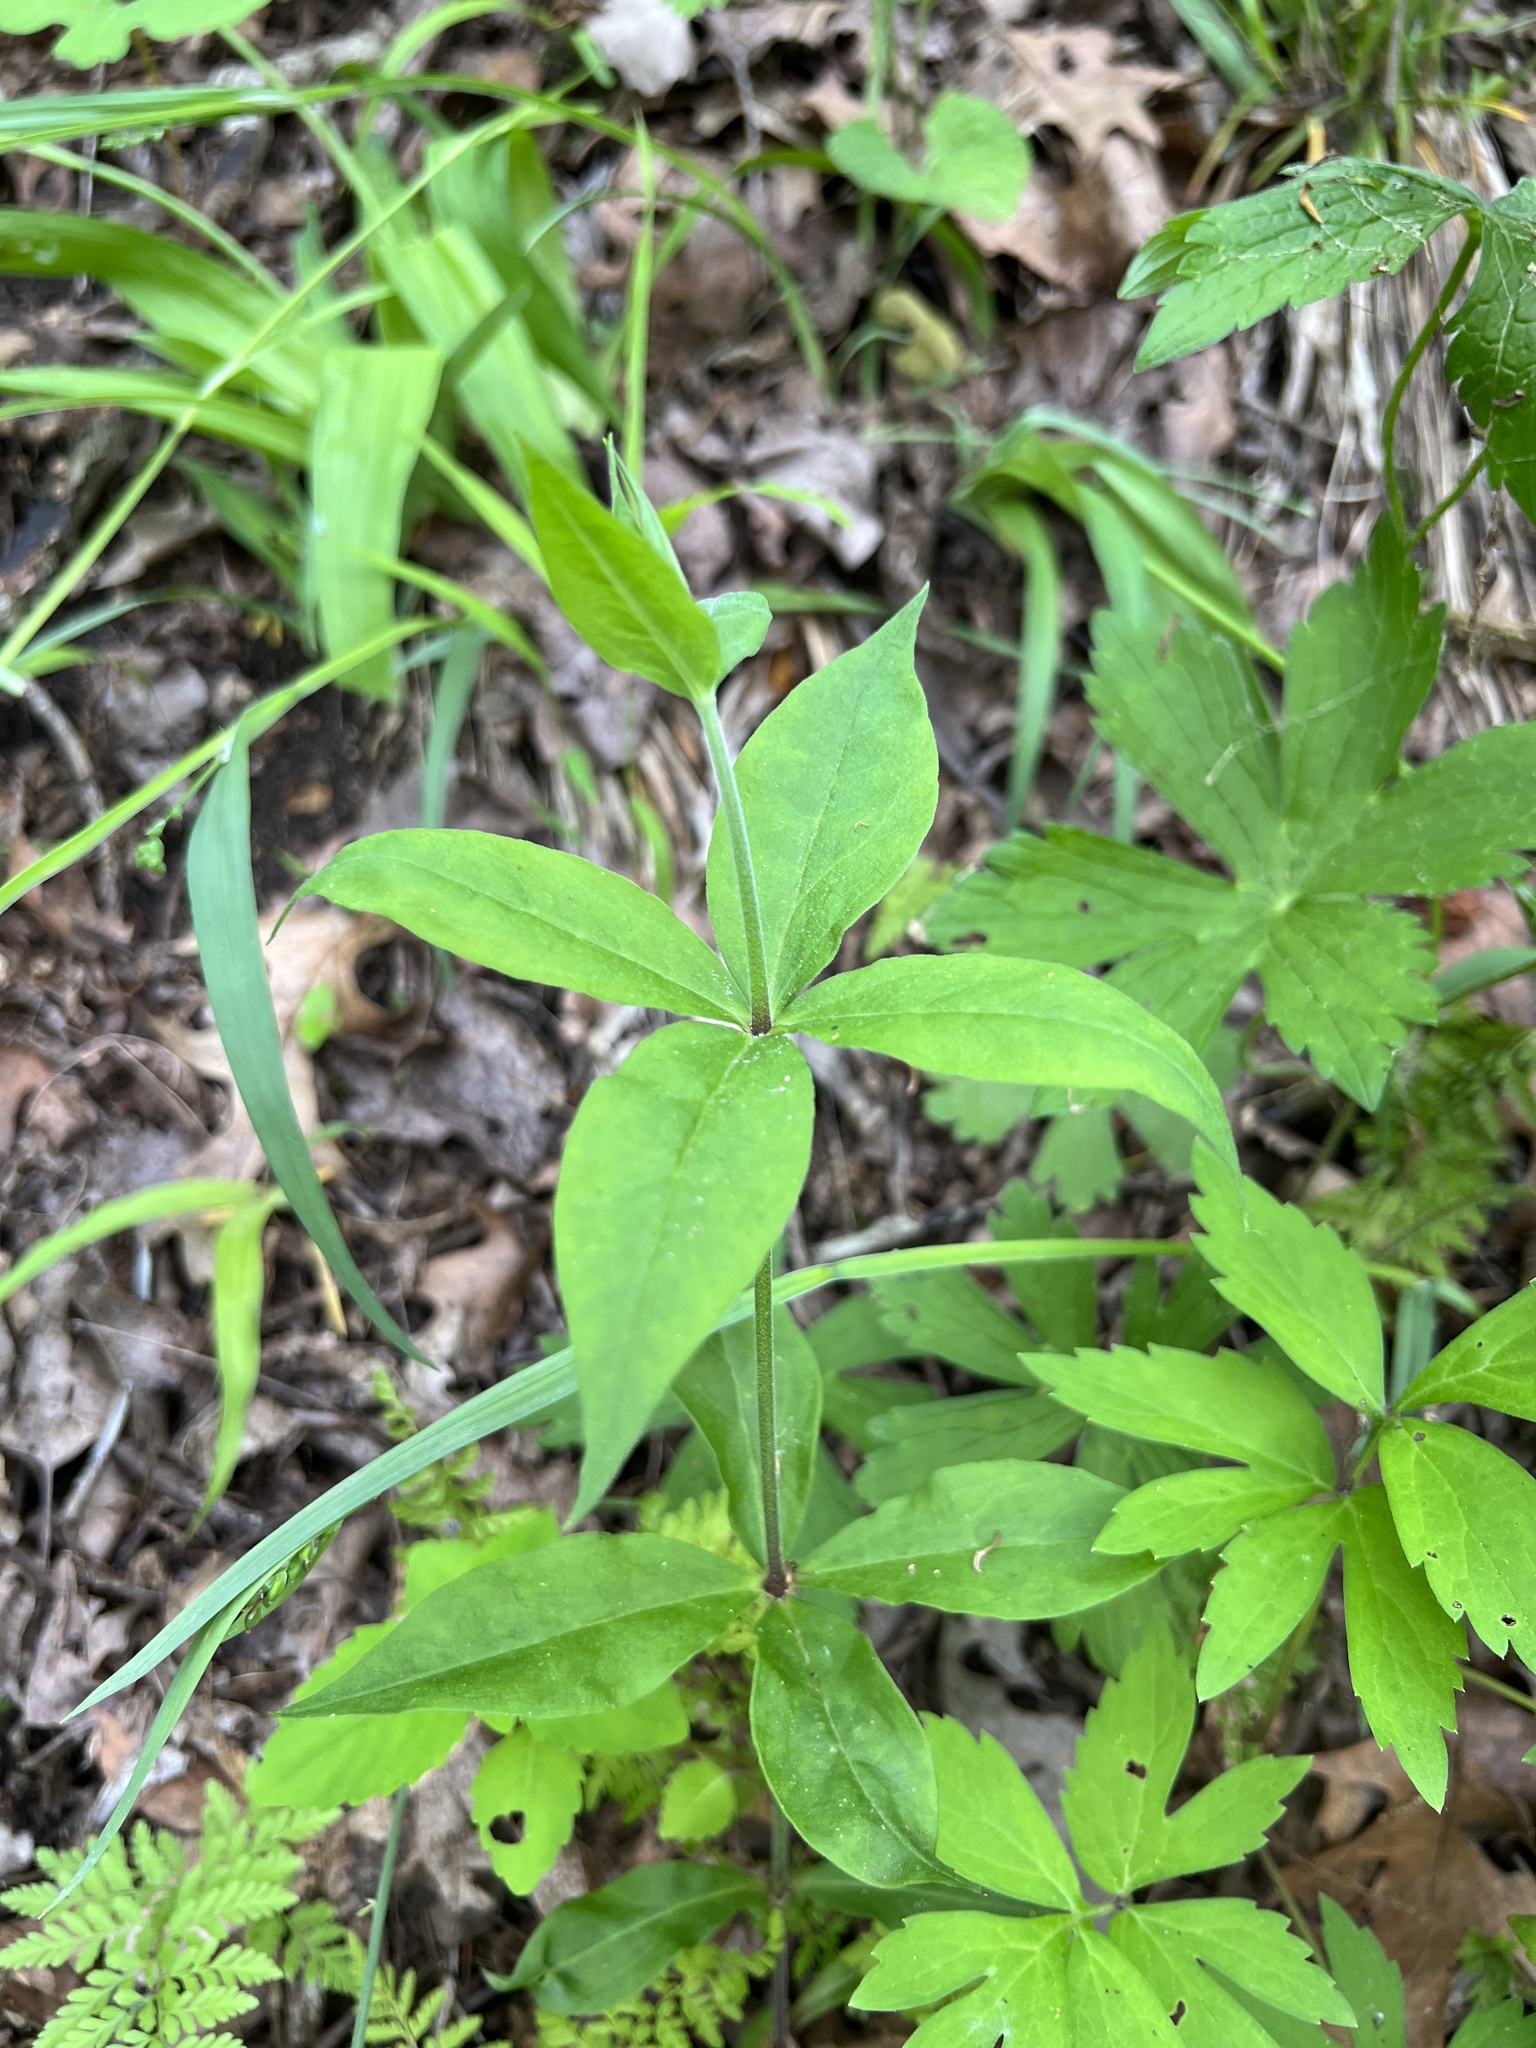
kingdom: Plantae
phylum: Tracheophyta
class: Magnoliopsida
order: Caryophyllales
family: Caryophyllaceae
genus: Silene
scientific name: Silene stellata
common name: Starry campion
